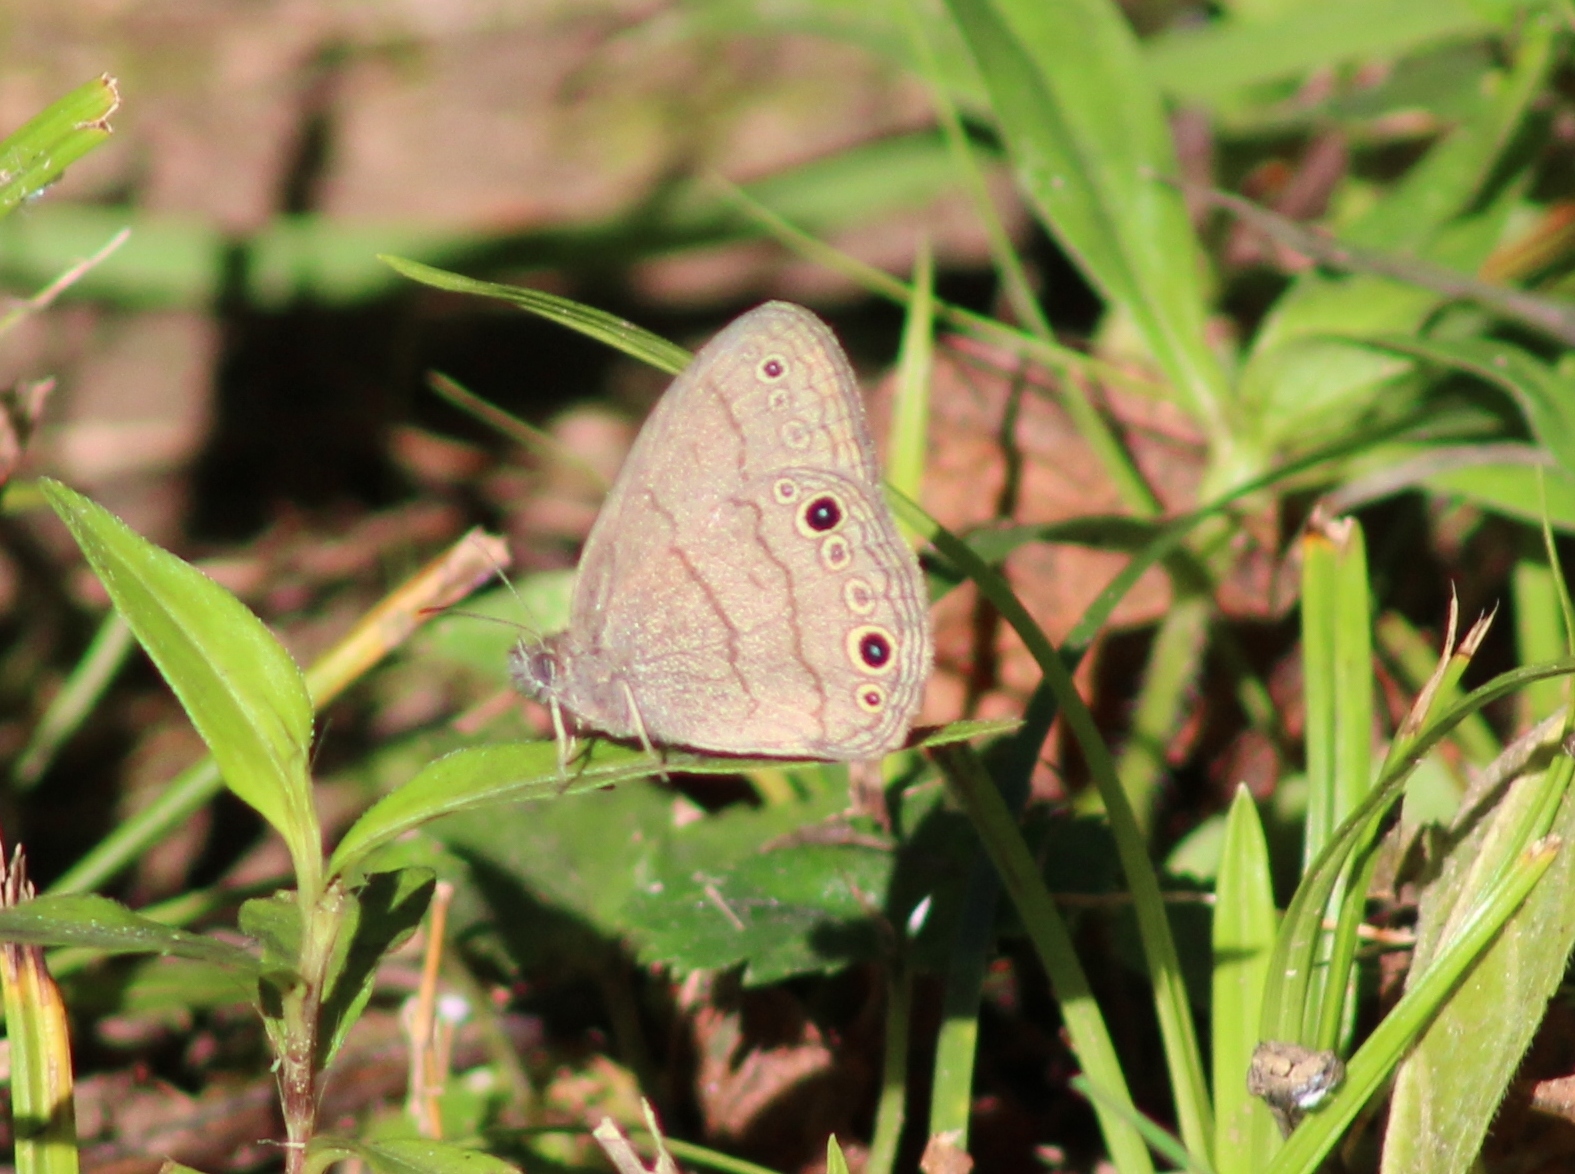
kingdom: Animalia
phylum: Arthropoda
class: Insecta
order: Lepidoptera
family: Nymphalidae
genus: Hermeuptychia
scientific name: Hermeuptychia hermes
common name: Hermes satyr
